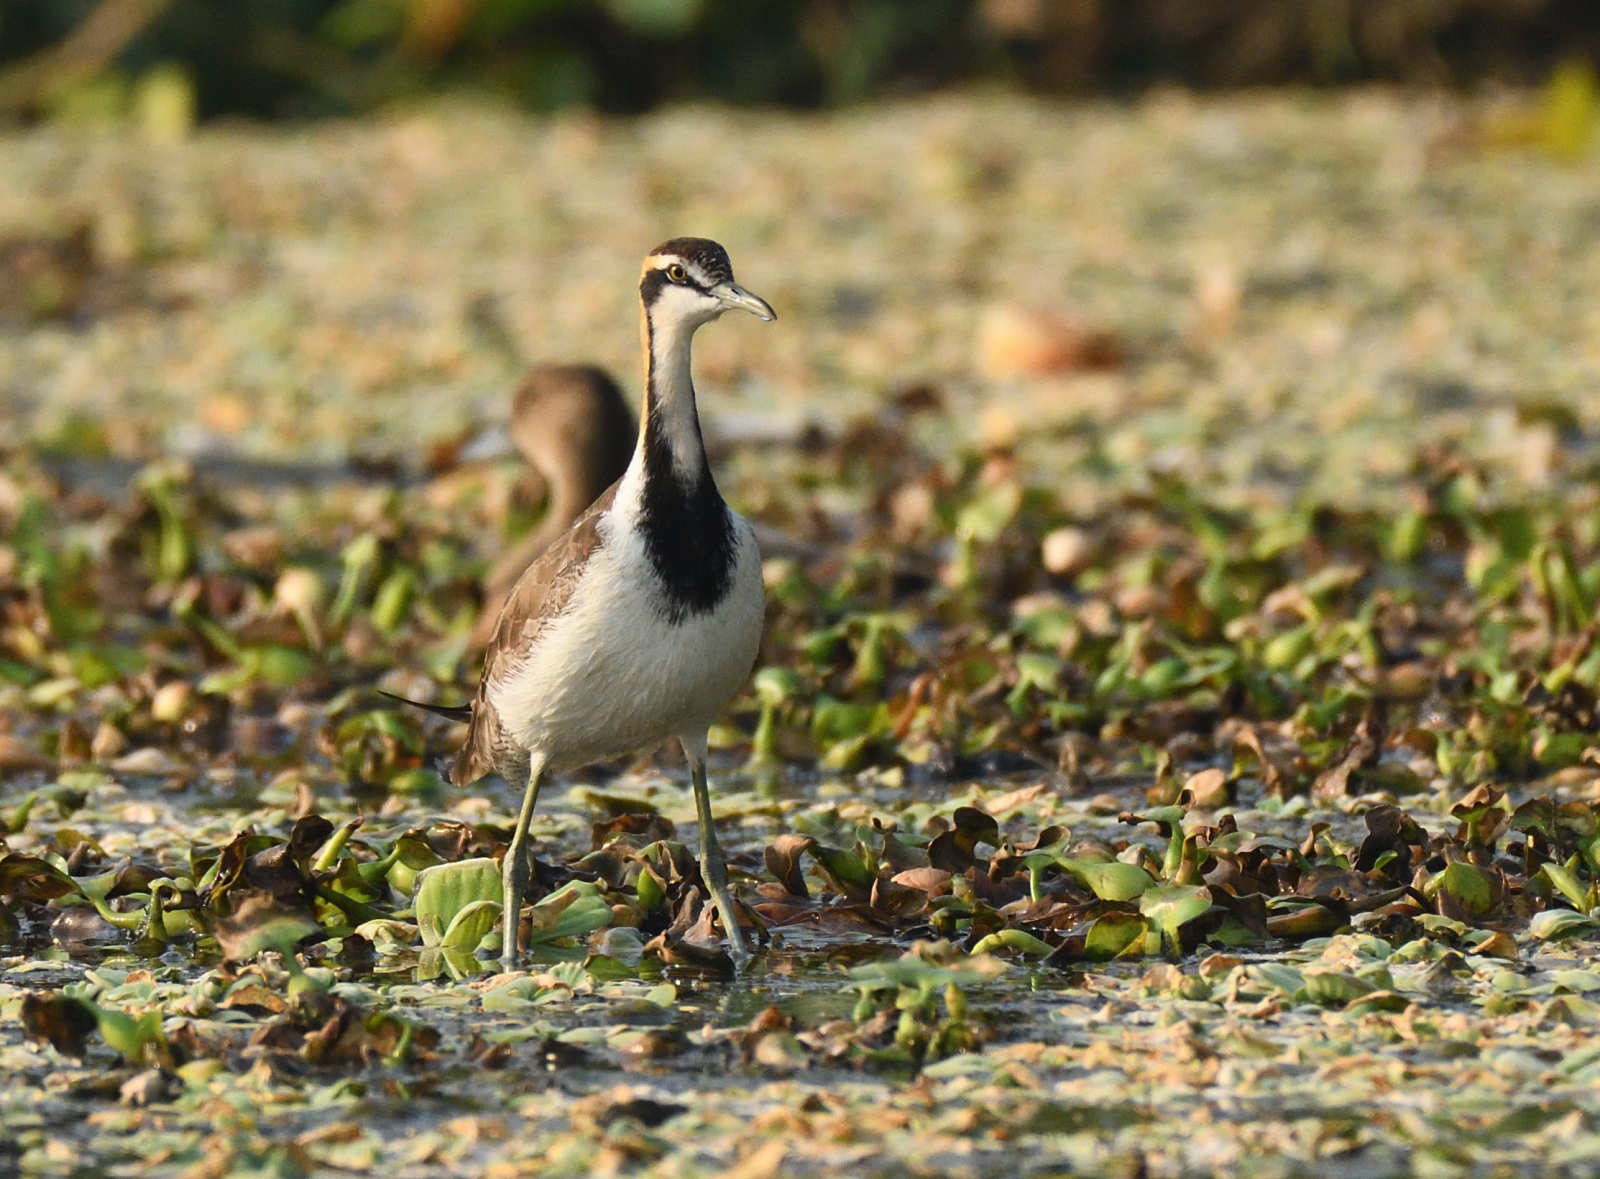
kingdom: Animalia
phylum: Chordata
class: Aves
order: Charadriiformes
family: Jacanidae
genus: Hydrophasianus
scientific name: Hydrophasianus chirurgus
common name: Pheasant-tailed jacana
